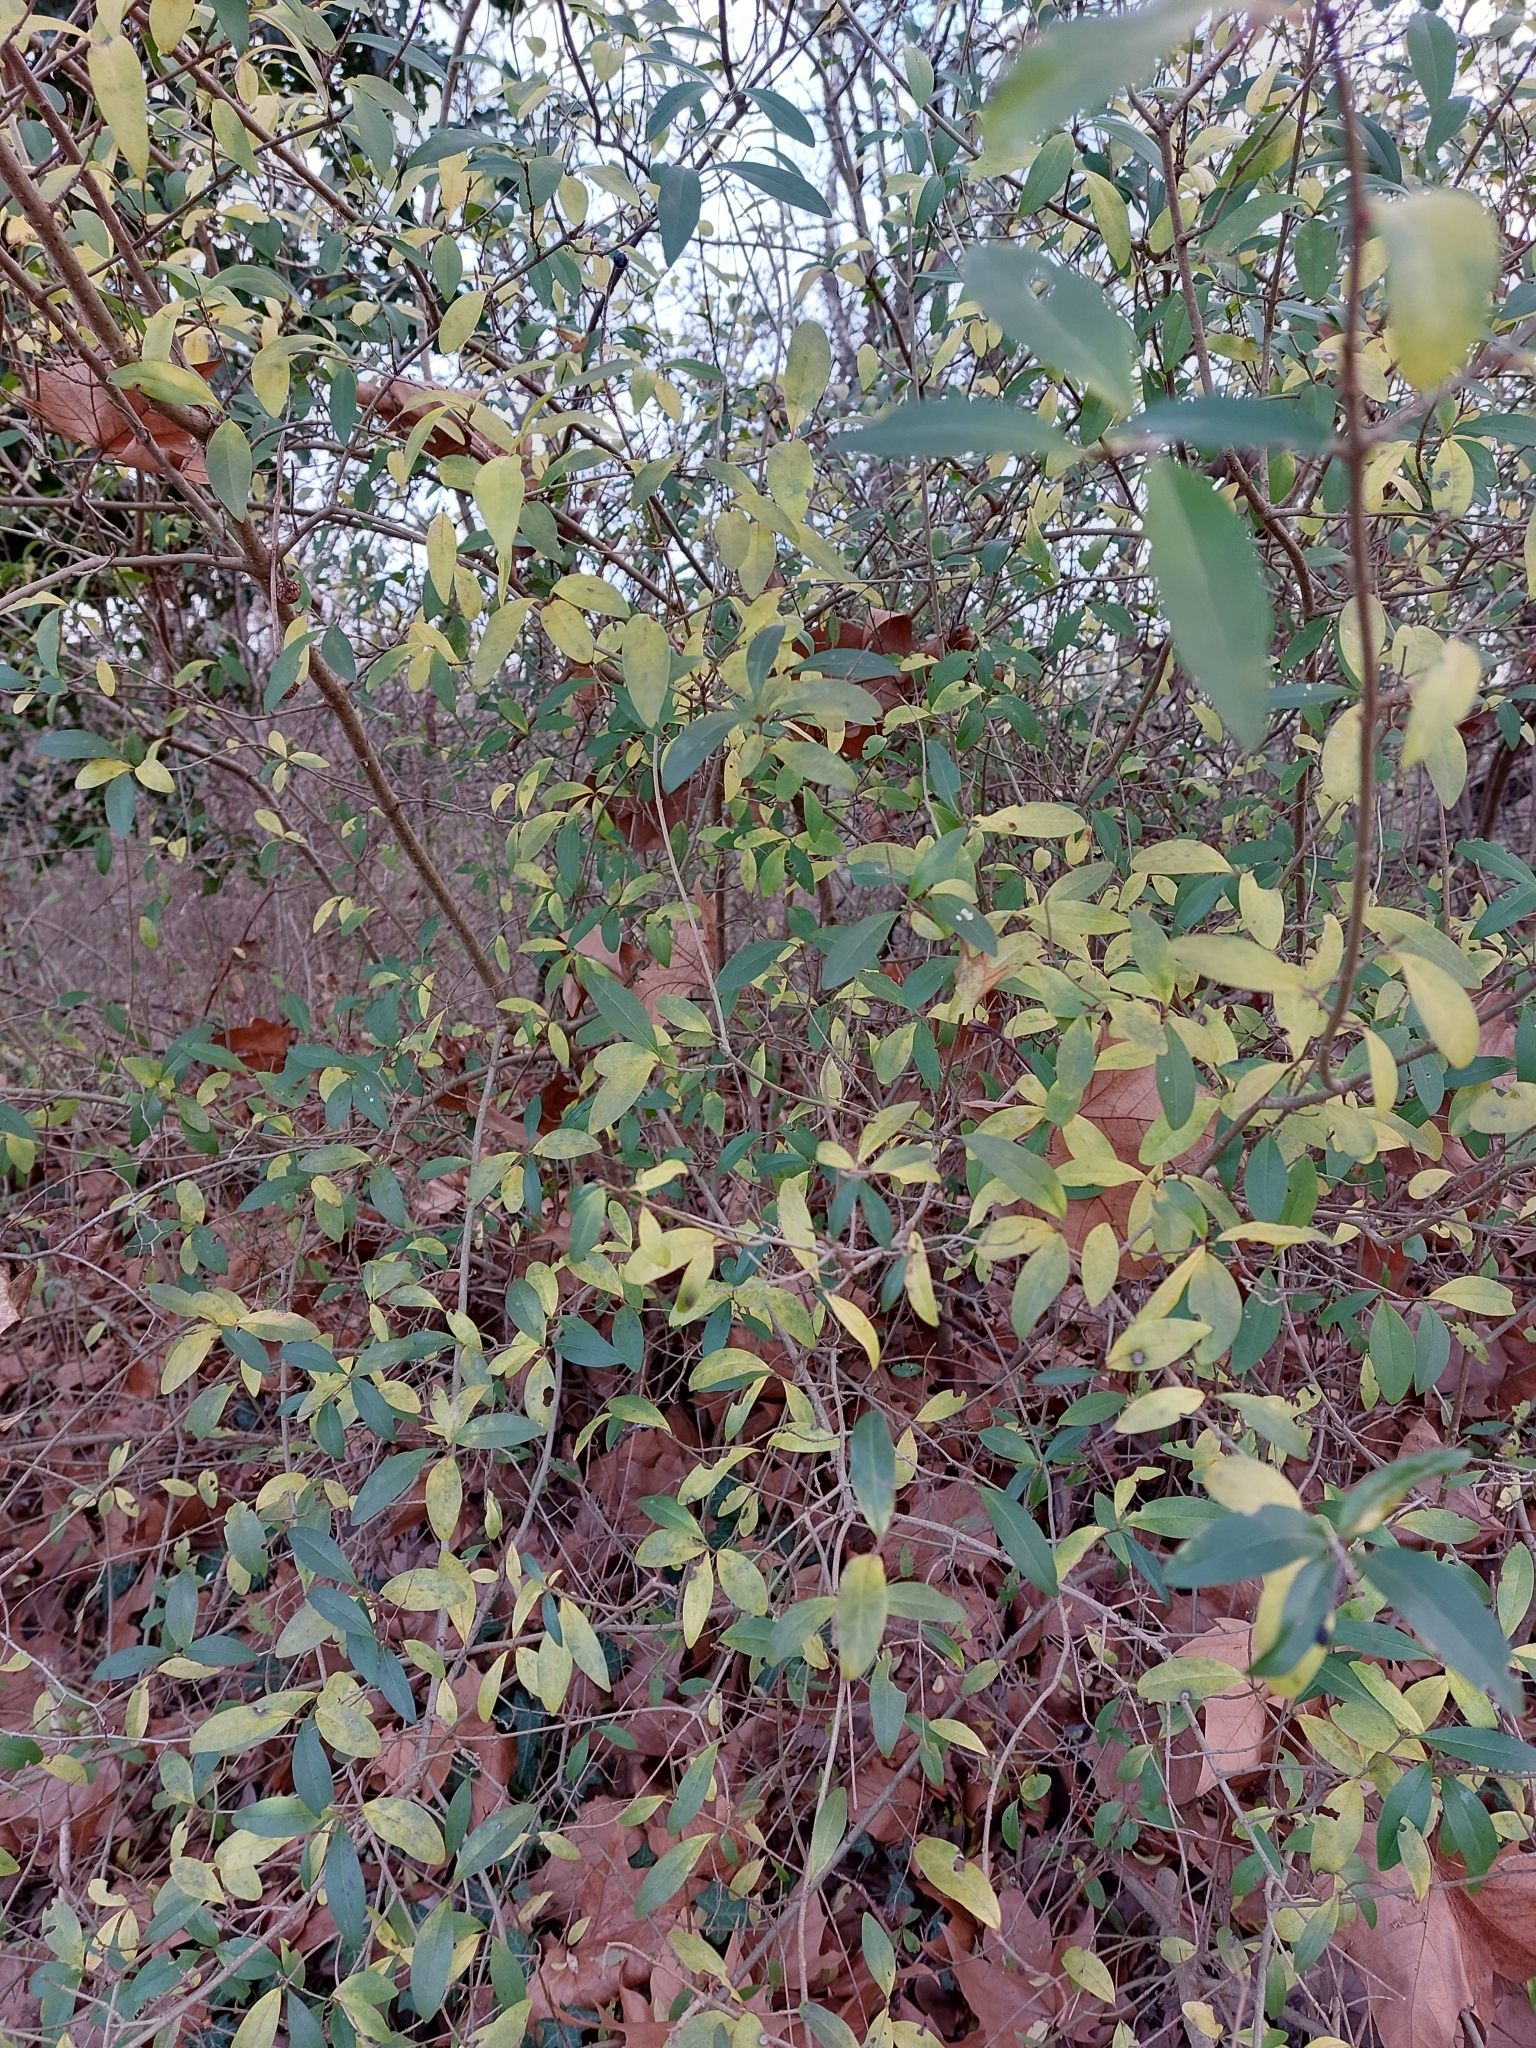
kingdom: Plantae
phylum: Tracheophyta
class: Magnoliopsida
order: Lamiales
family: Oleaceae
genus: Ligustrum
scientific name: Ligustrum vulgare
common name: Wild privet
